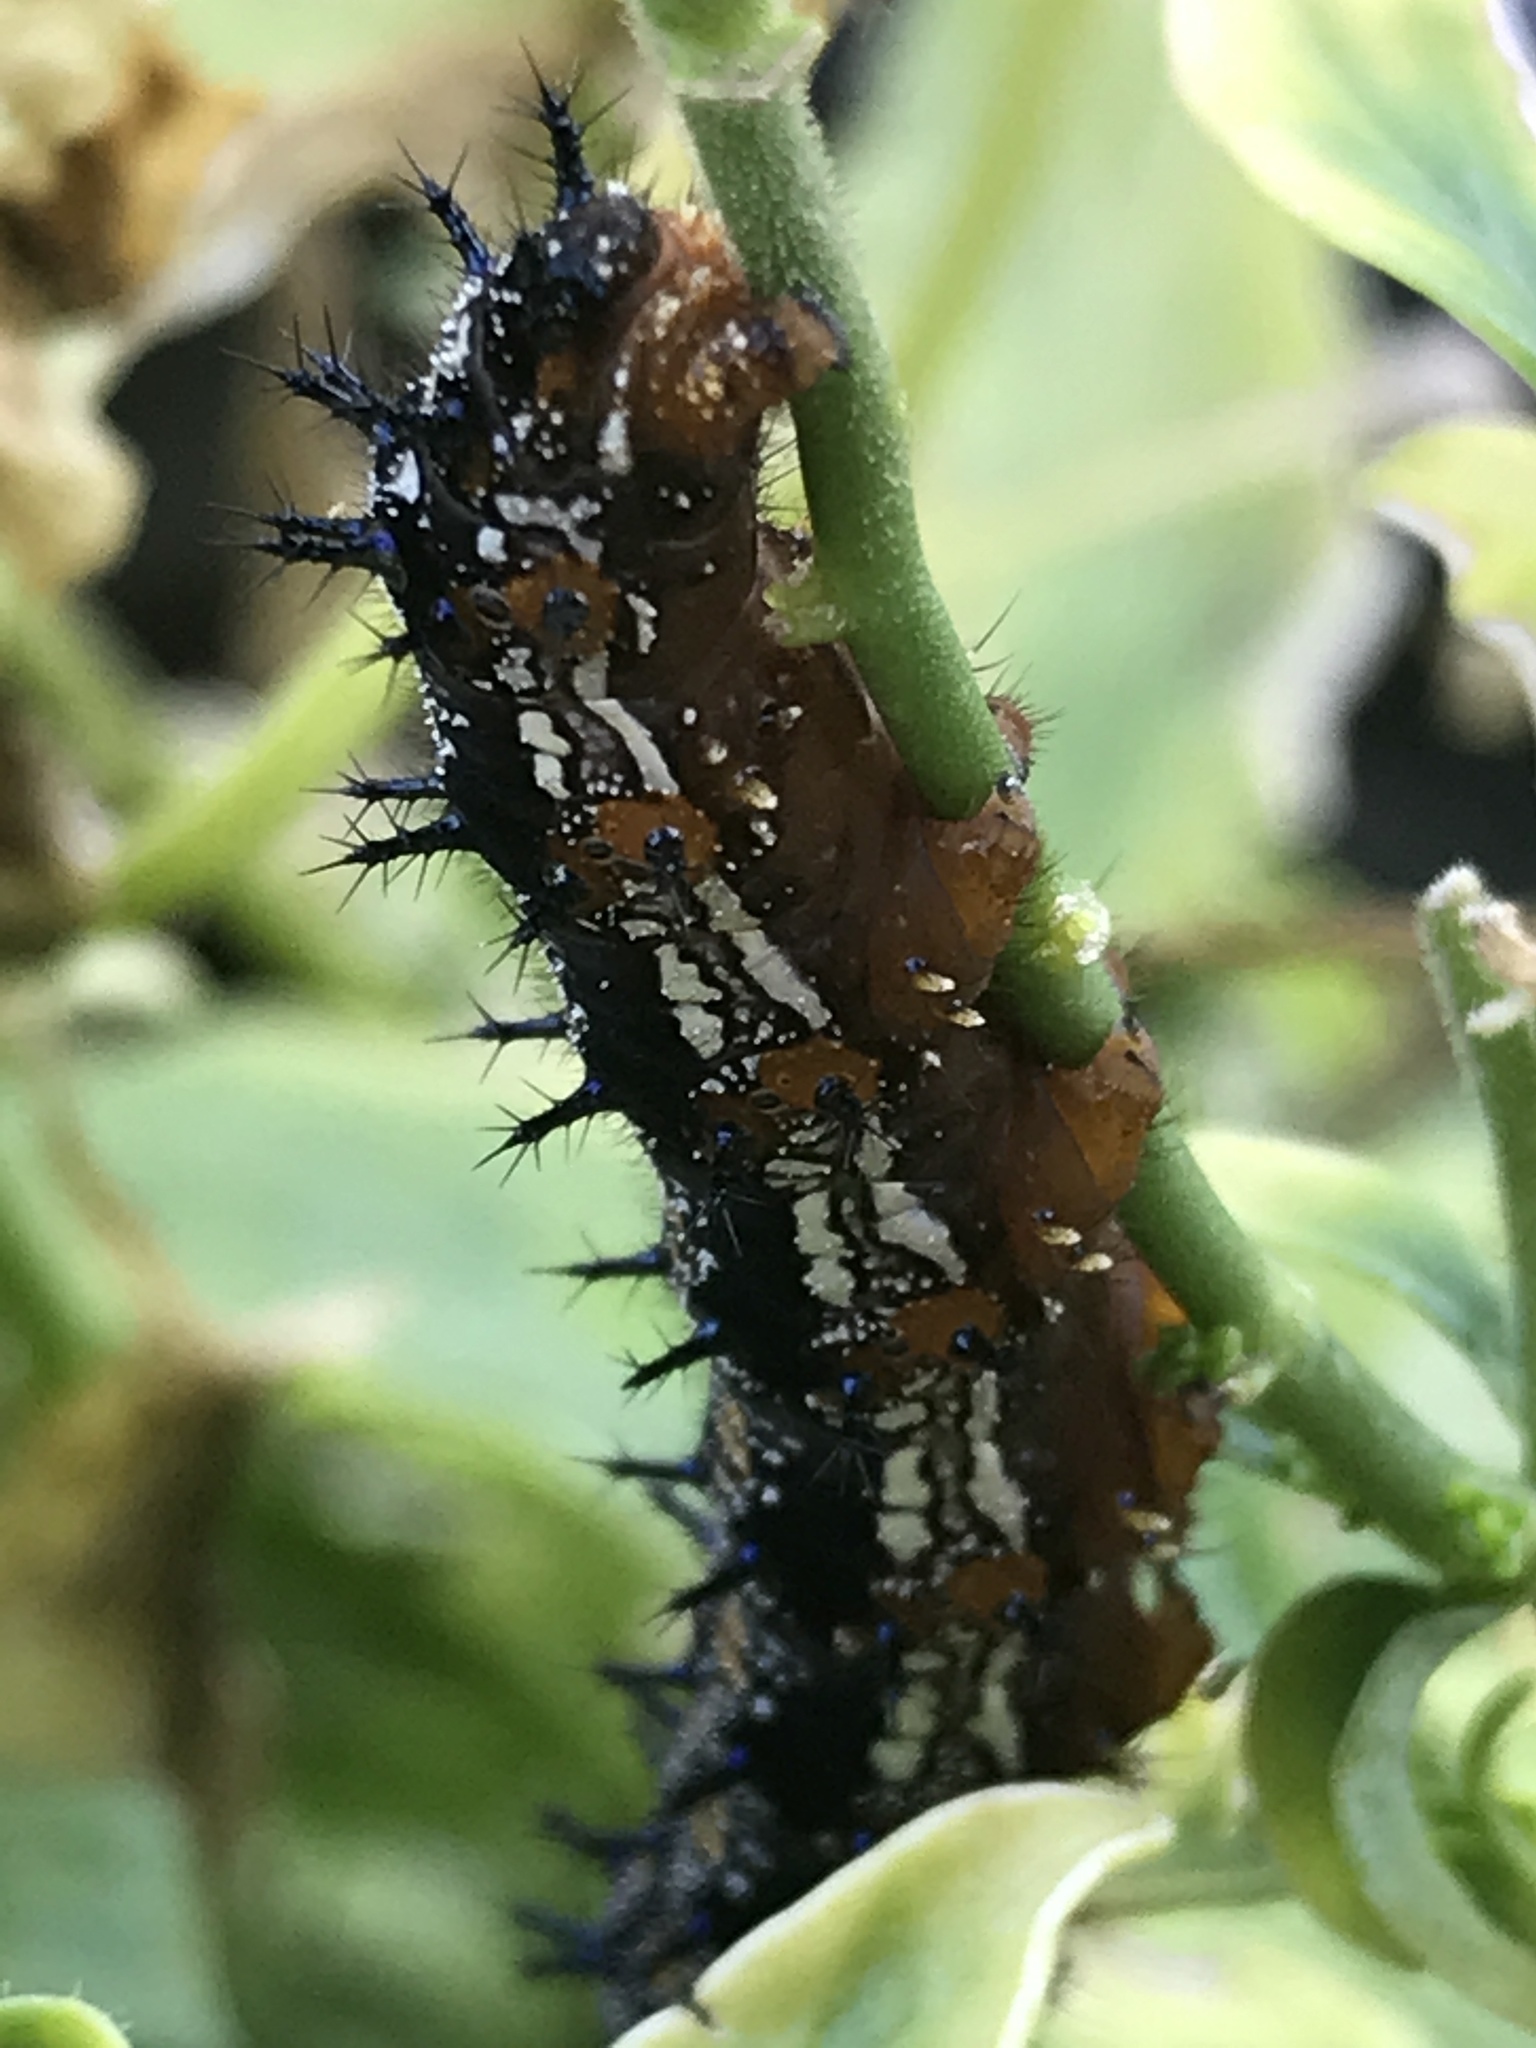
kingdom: Animalia
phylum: Arthropoda
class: Insecta
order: Lepidoptera
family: Nymphalidae
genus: Junonia
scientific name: Junonia coenia
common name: Common buckeye
